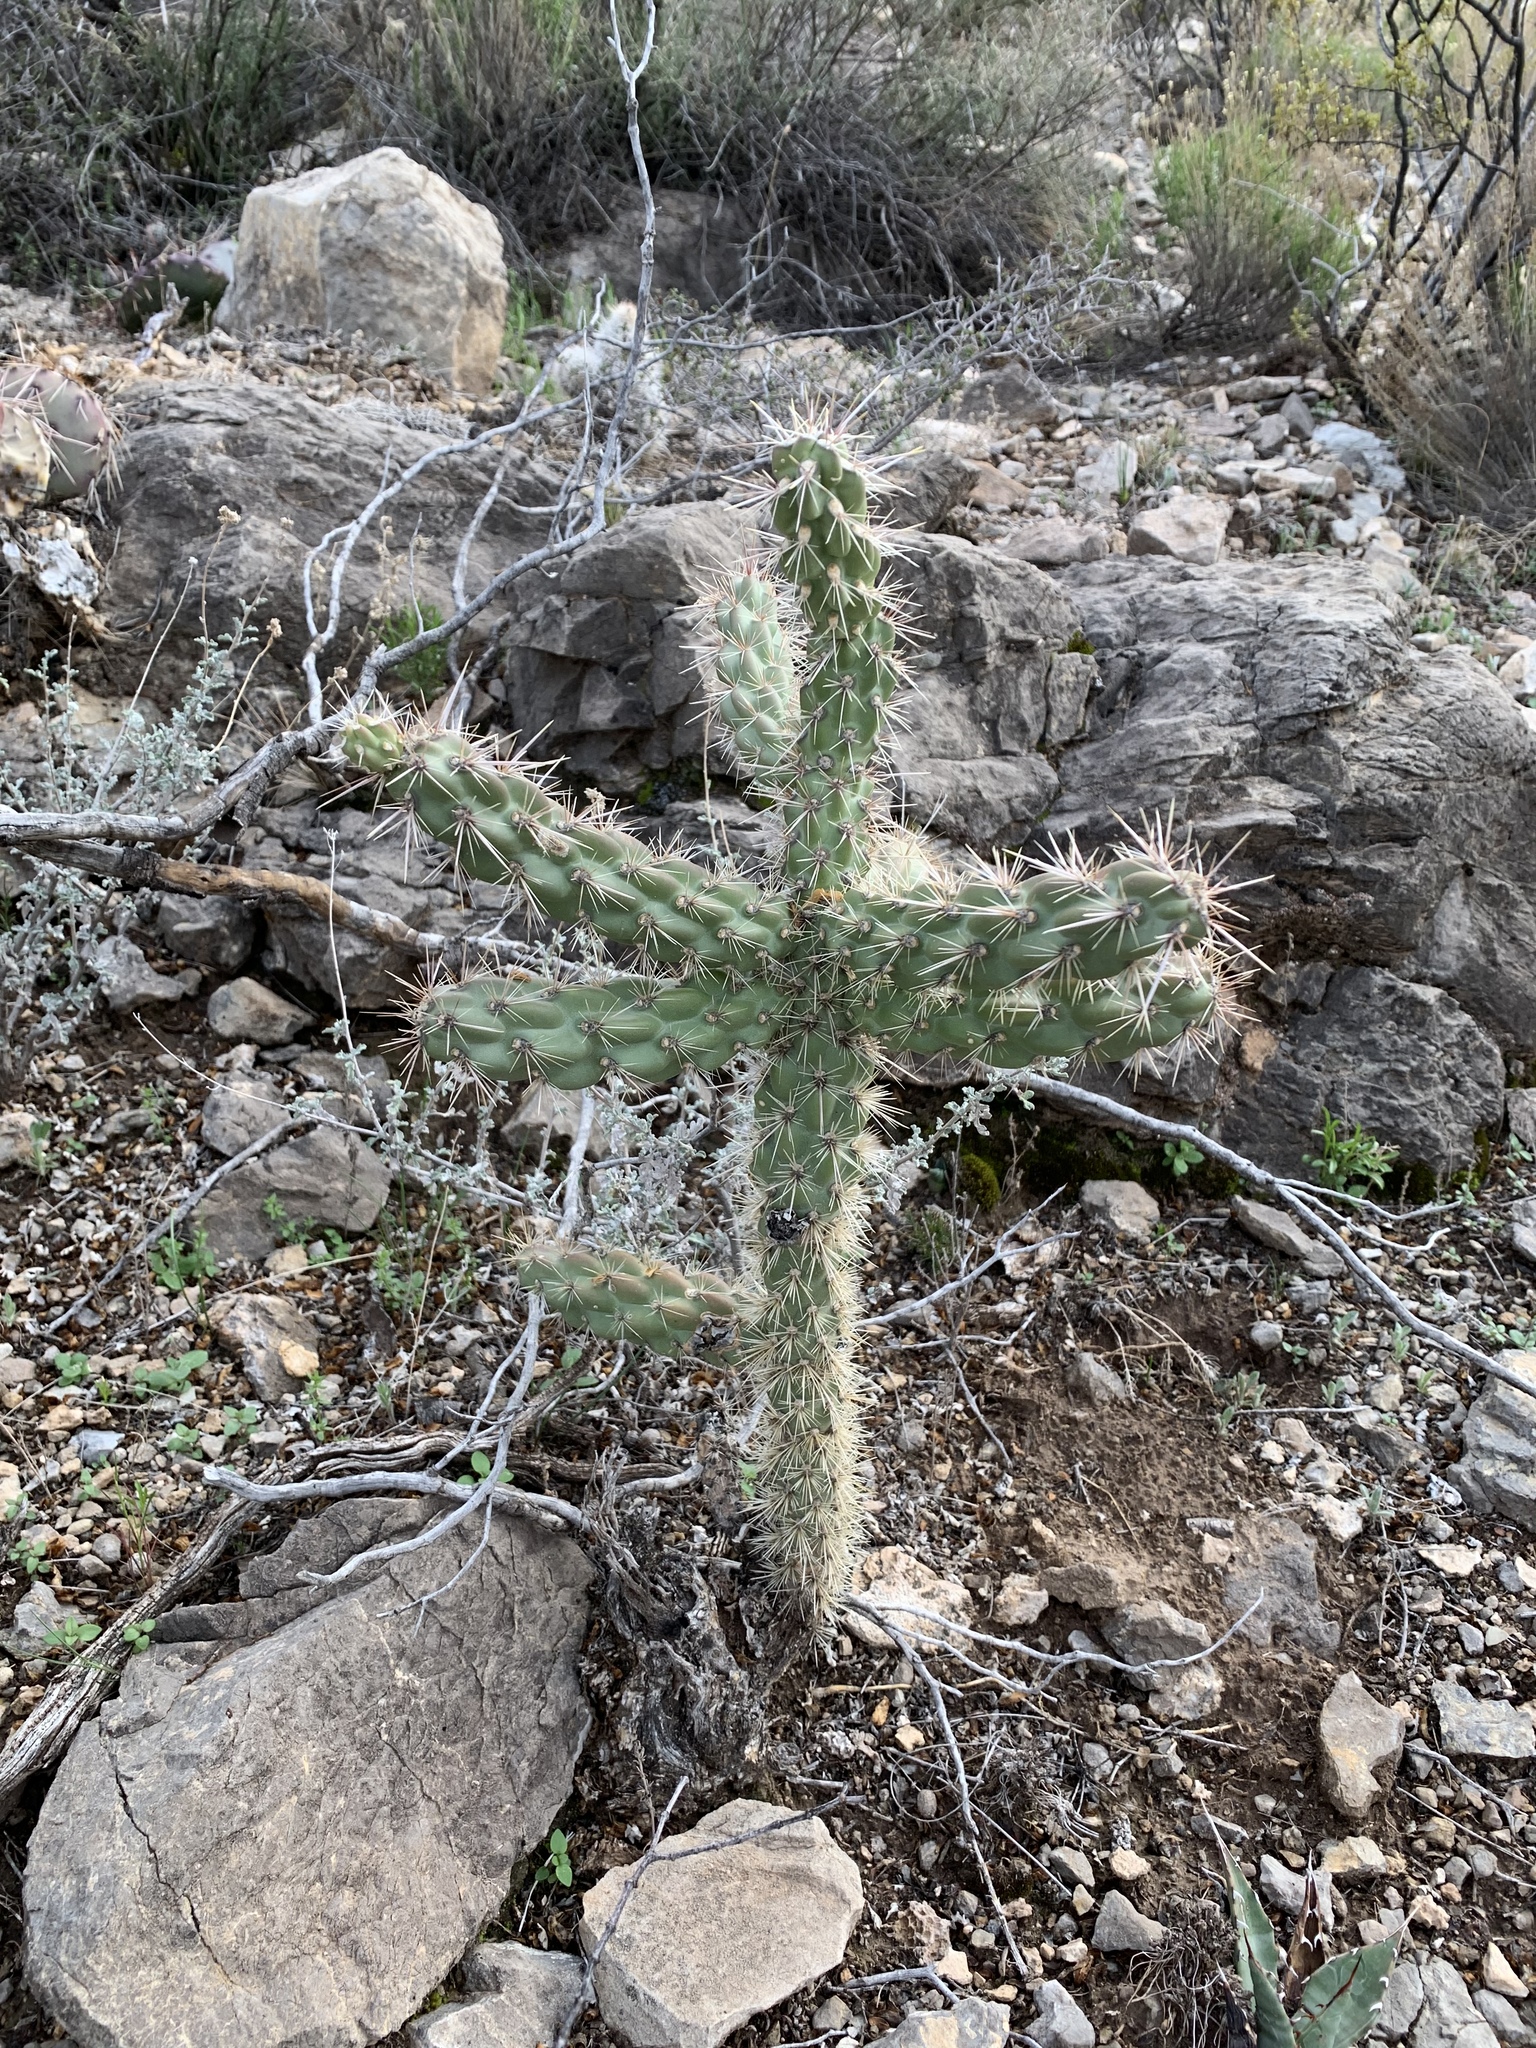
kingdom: Plantae
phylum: Tracheophyta
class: Magnoliopsida
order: Caryophyllales
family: Cactaceae
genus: Cylindropuntia
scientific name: Cylindropuntia imbricata
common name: Candelabrum cactus
